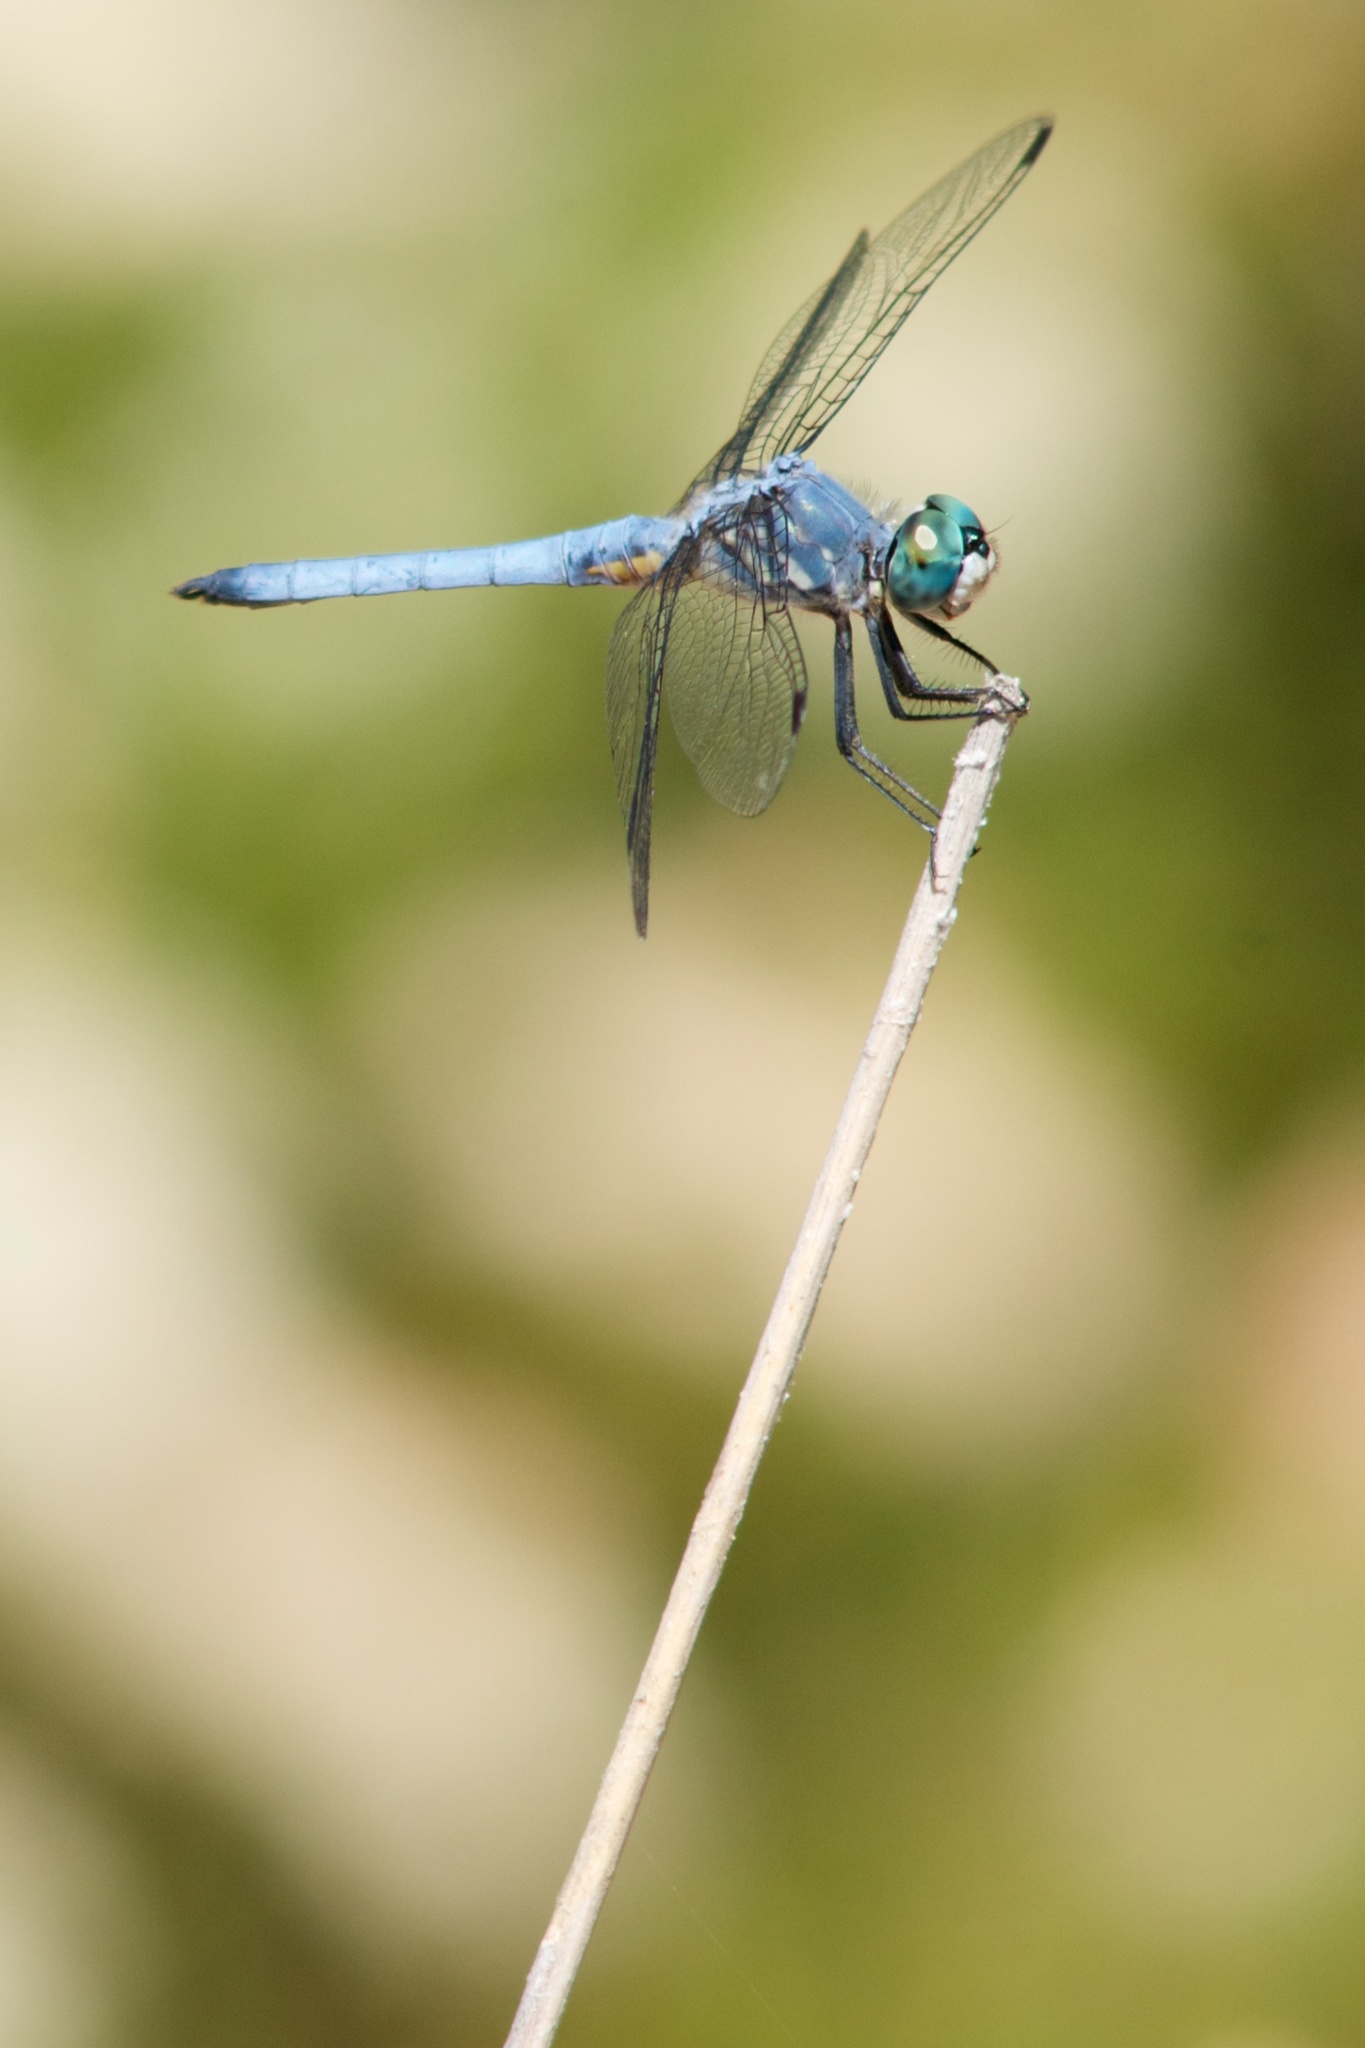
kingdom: Animalia
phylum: Arthropoda
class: Insecta
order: Odonata
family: Libellulidae
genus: Pachydiplax
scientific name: Pachydiplax longipennis
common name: Blue dasher
